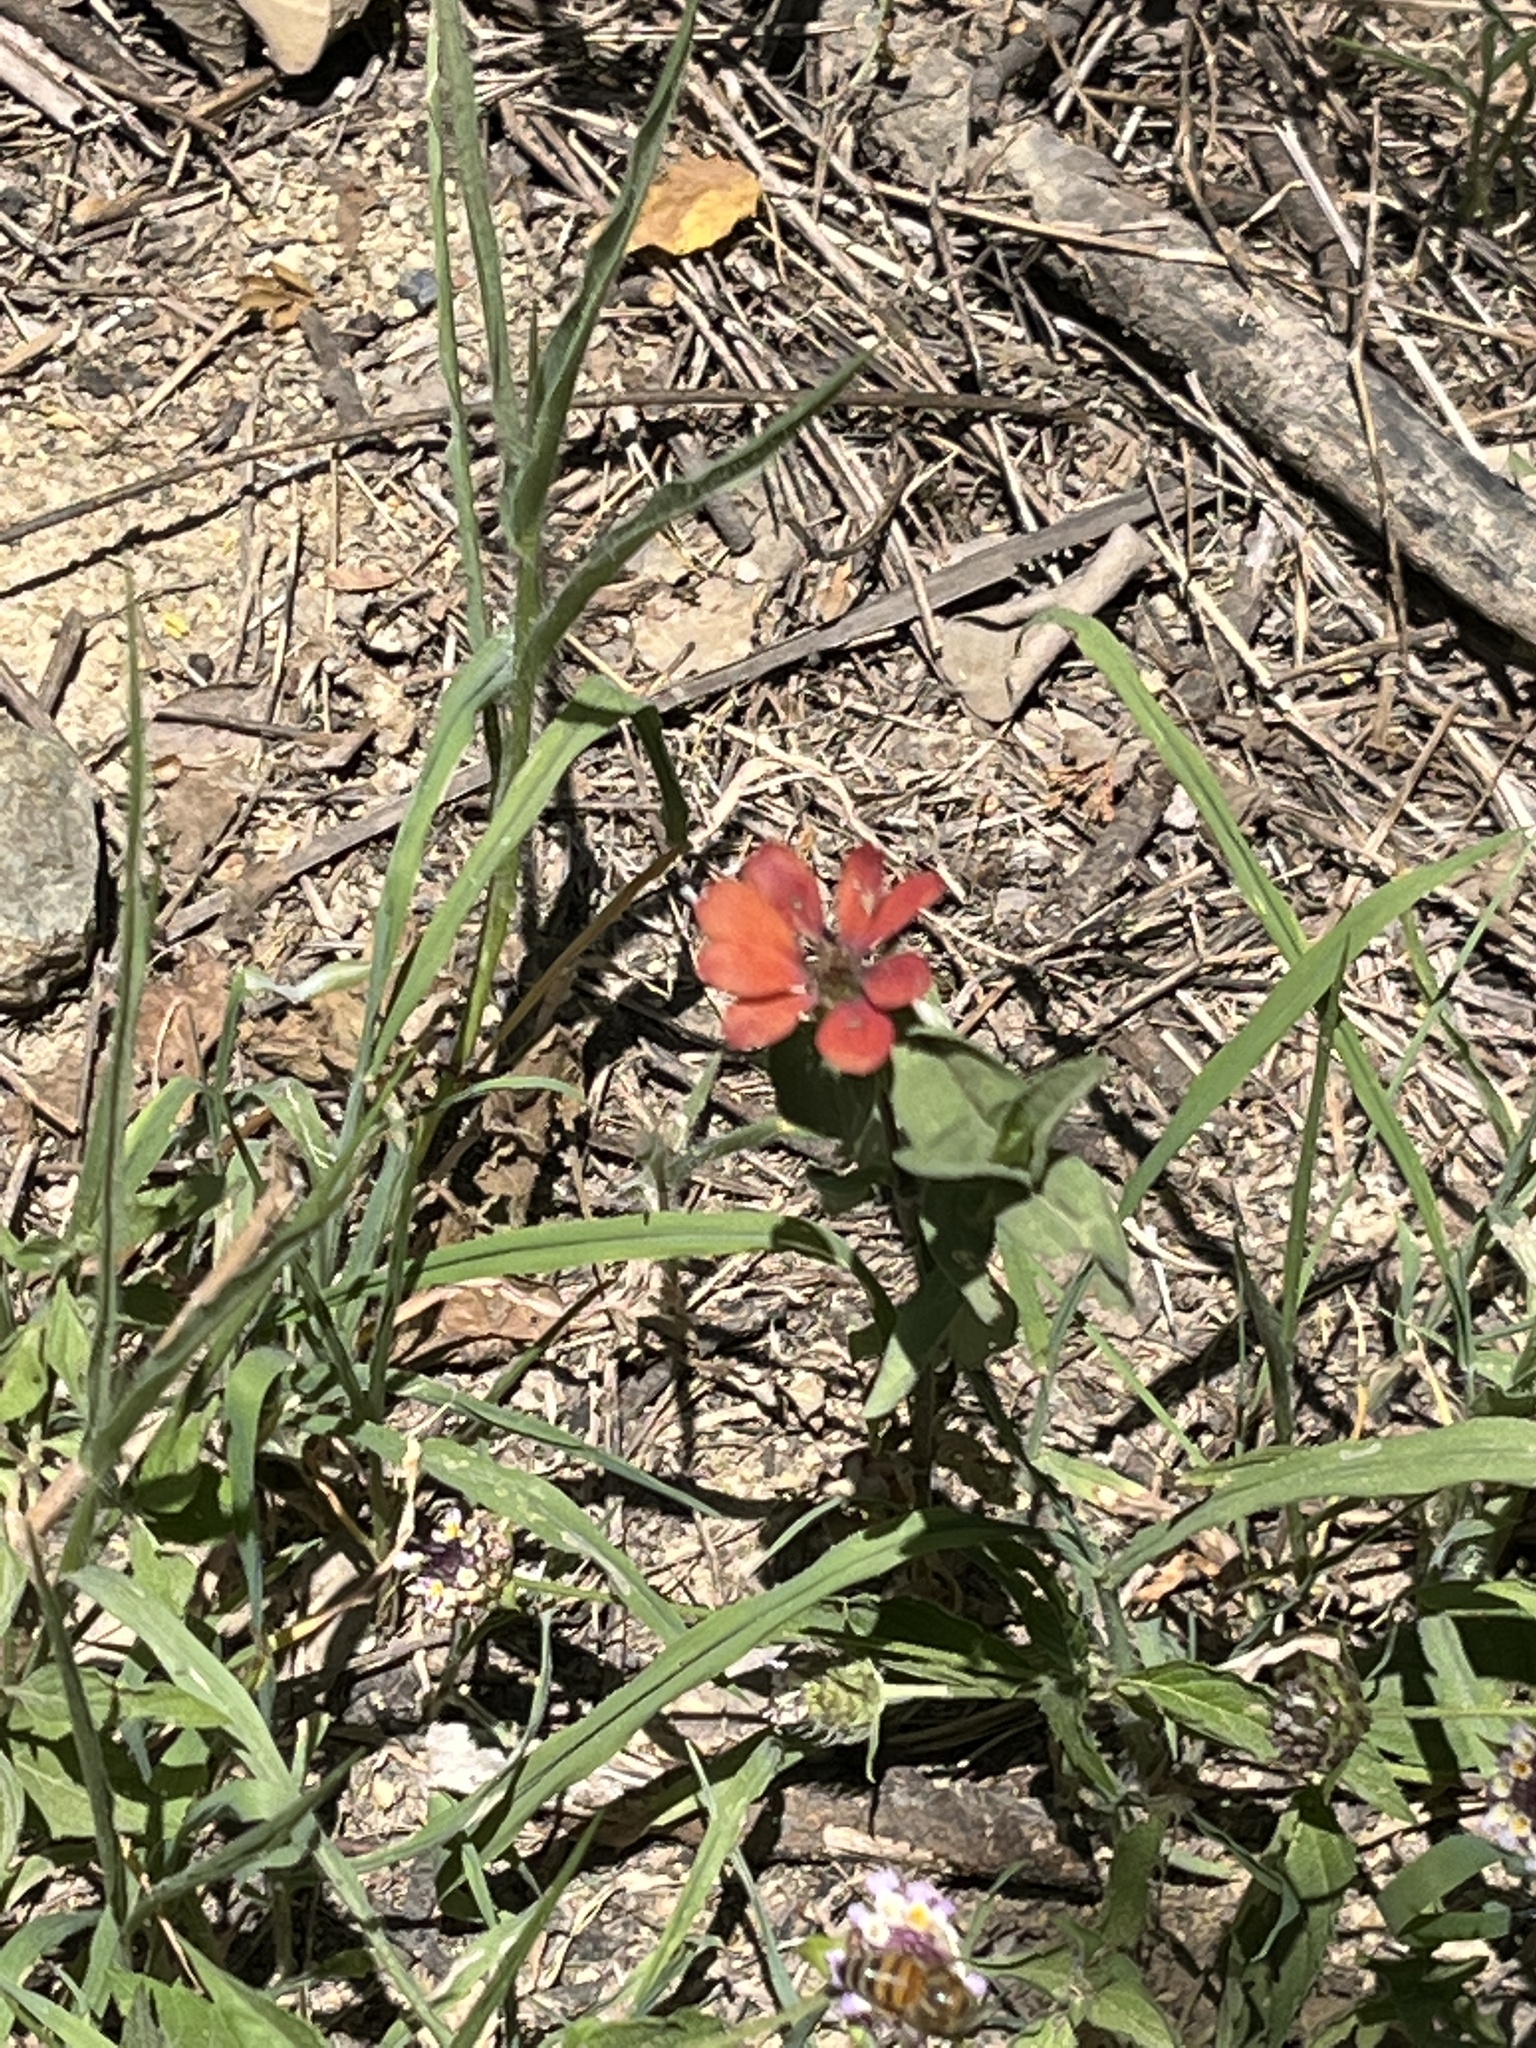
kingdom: Plantae
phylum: Tracheophyta
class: Magnoliopsida
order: Asterales
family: Asteraceae
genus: Zinnia
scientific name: Zinnia peruviana
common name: Peruvian zinnia
